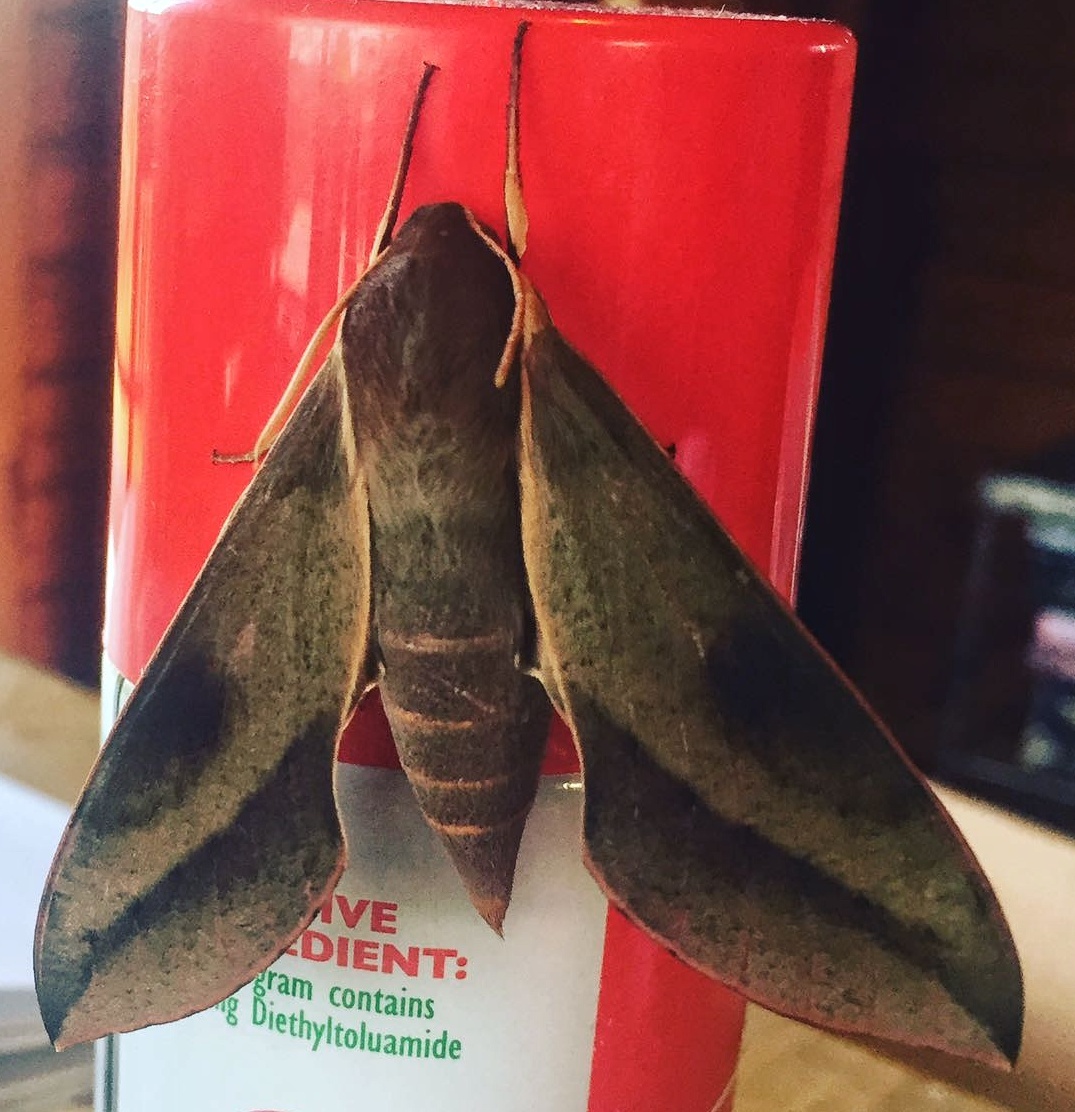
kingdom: Animalia
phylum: Arthropoda
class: Insecta
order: Lepidoptera
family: Sphingidae
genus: Theretra
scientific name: Theretra capensis
